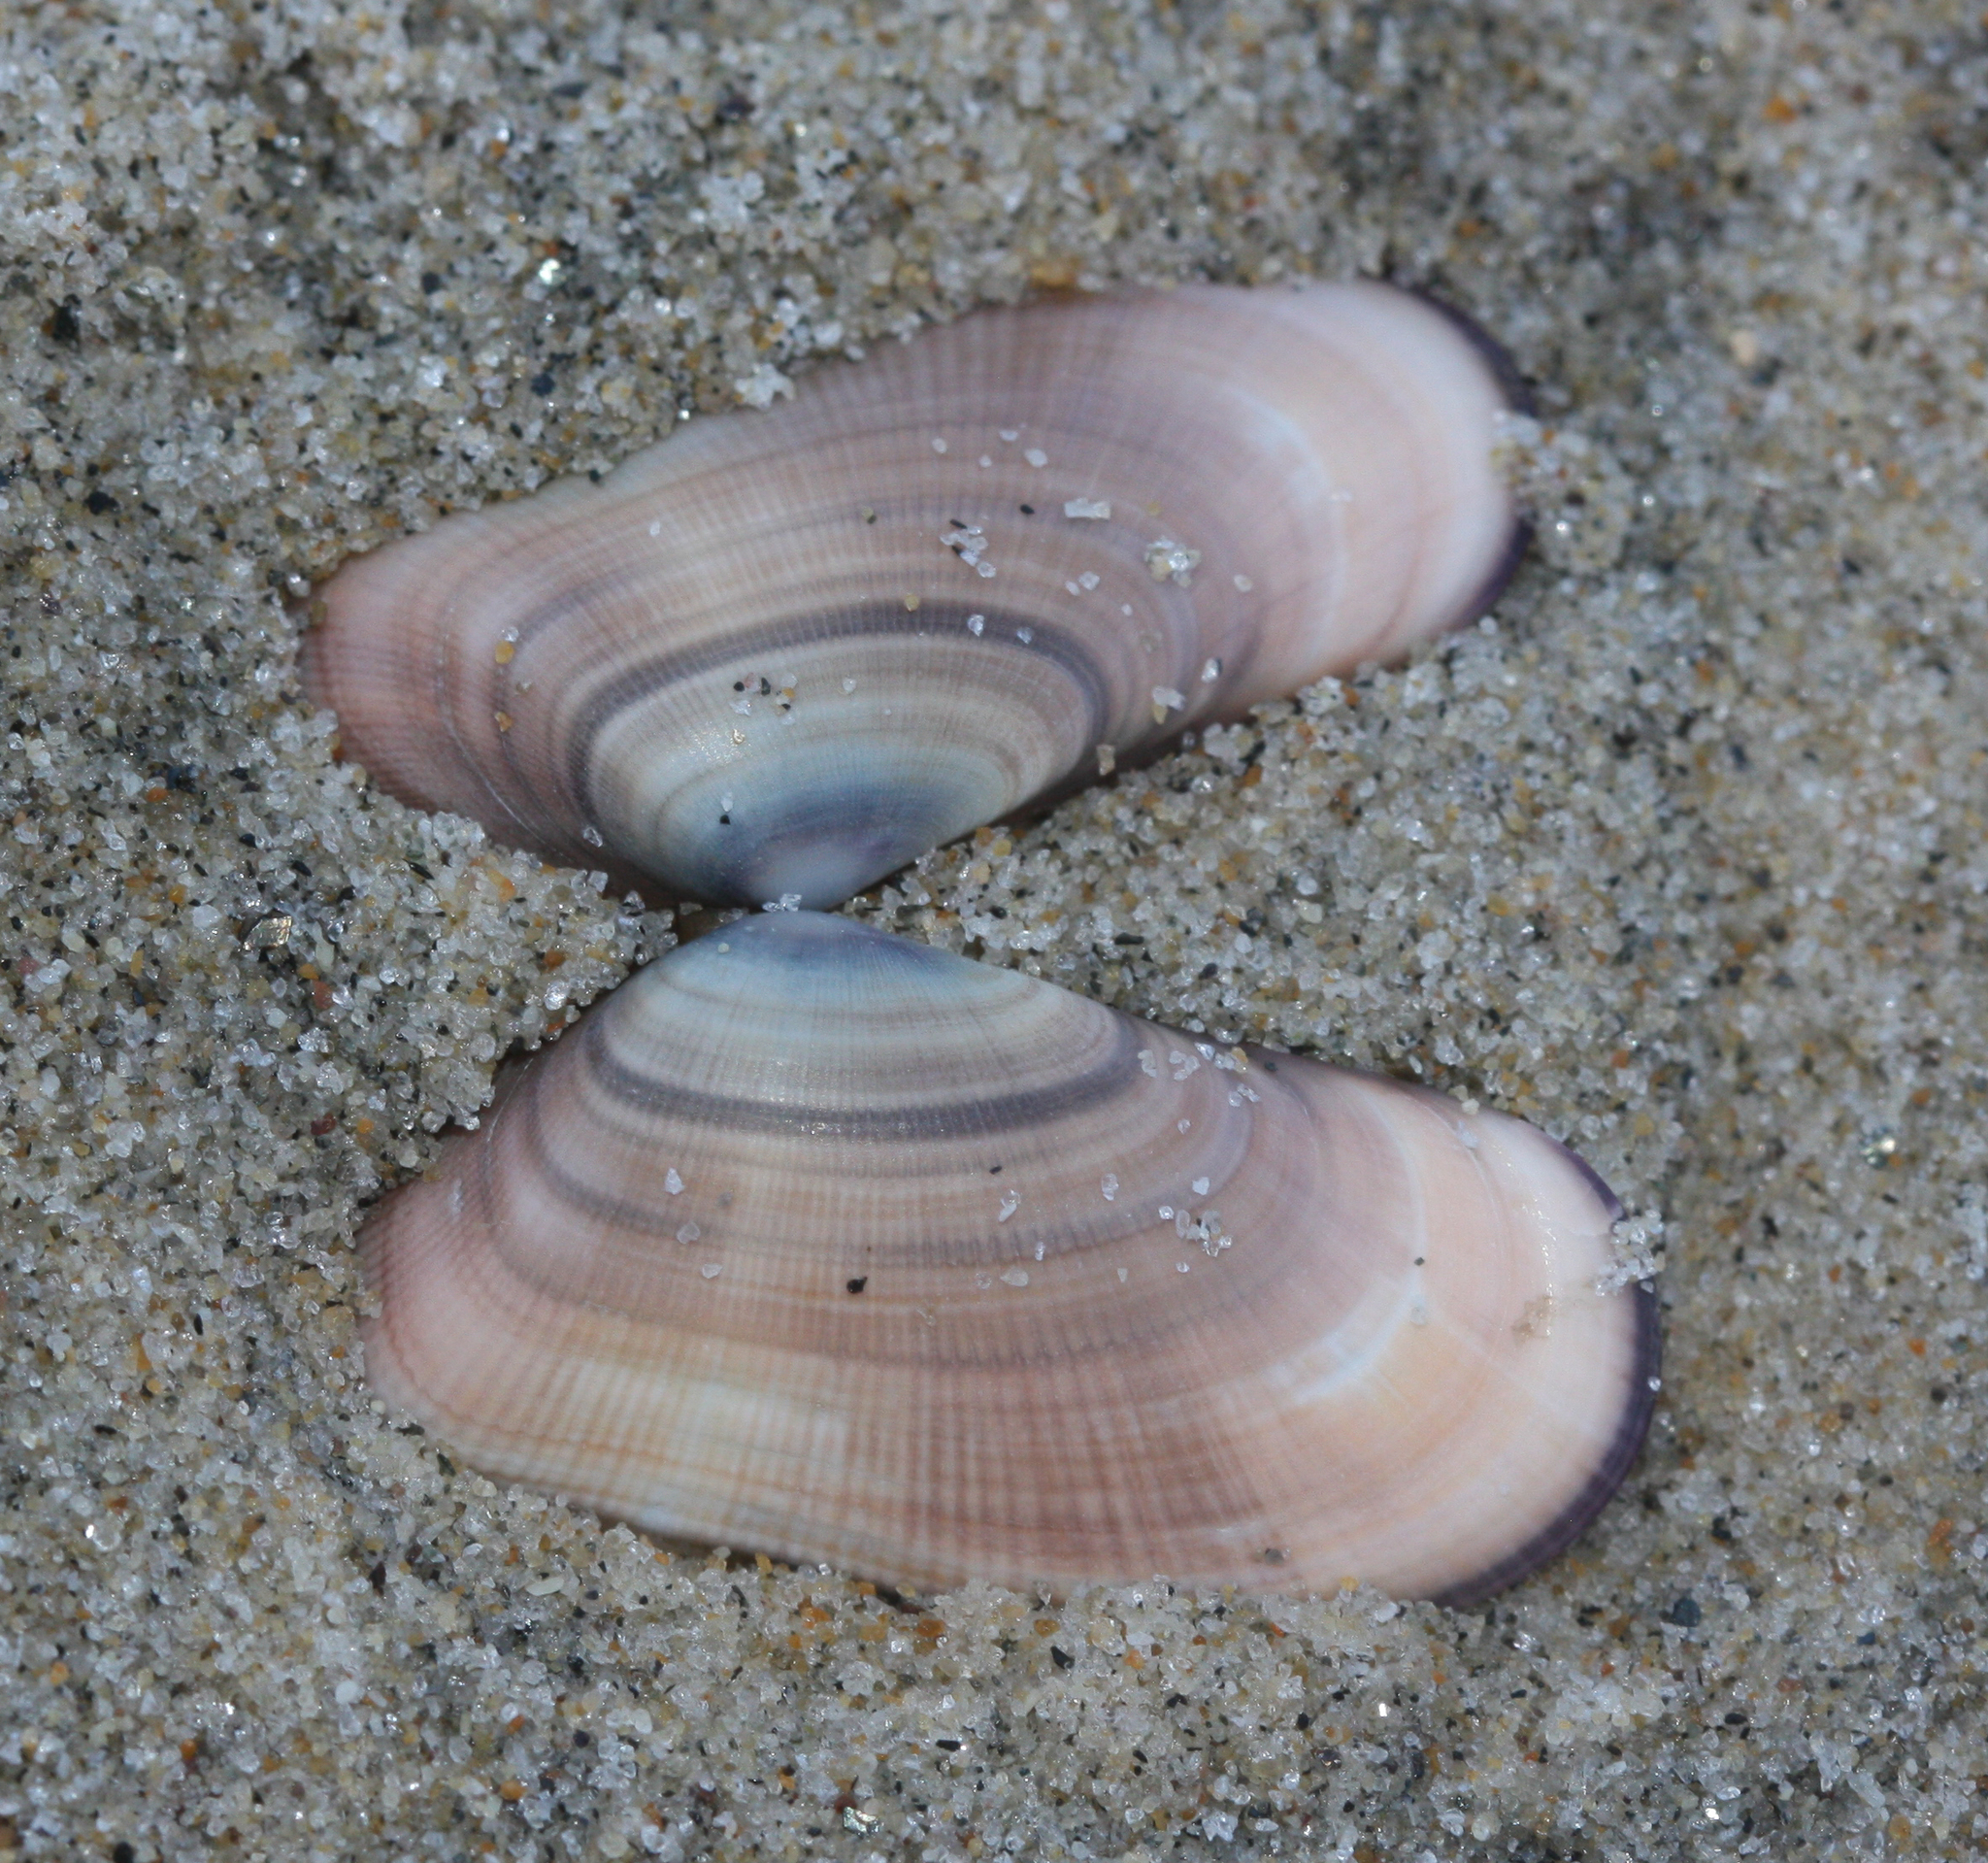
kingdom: Animalia
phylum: Mollusca
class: Bivalvia
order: Cardiida
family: Donacidae
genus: Donax
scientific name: Donax gouldii
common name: Gould beanclam
